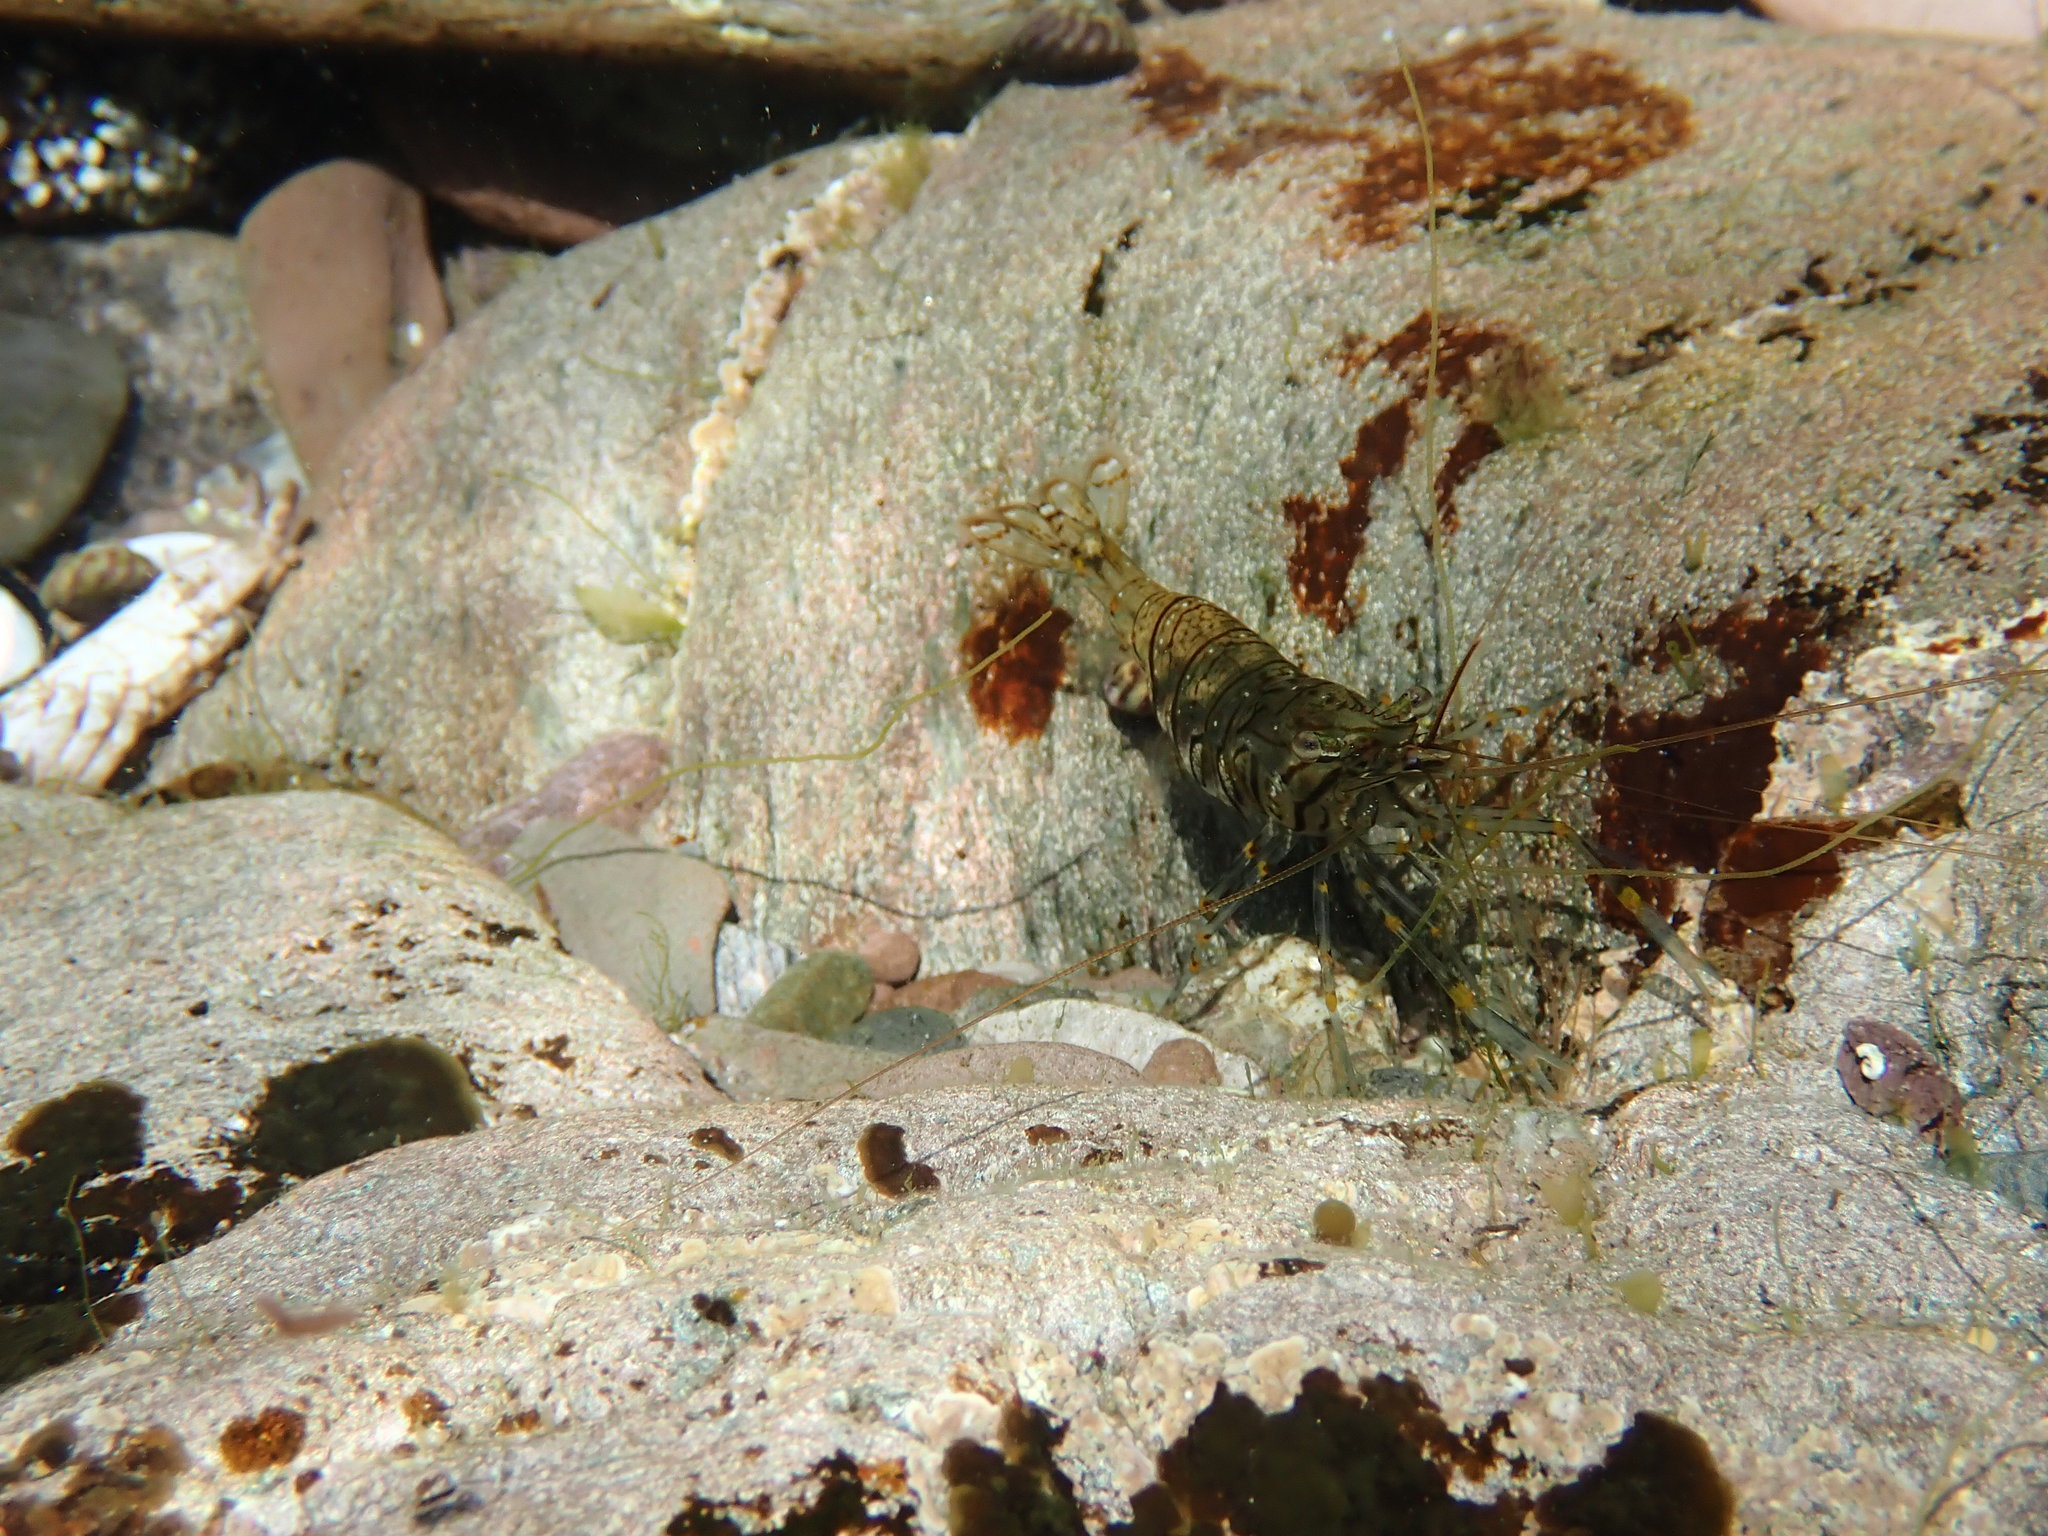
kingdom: Animalia
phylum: Arthropoda
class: Malacostraca
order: Decapoda
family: Palaemonidae
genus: Palaemon
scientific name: Palaemon elegans
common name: Grass prawm
